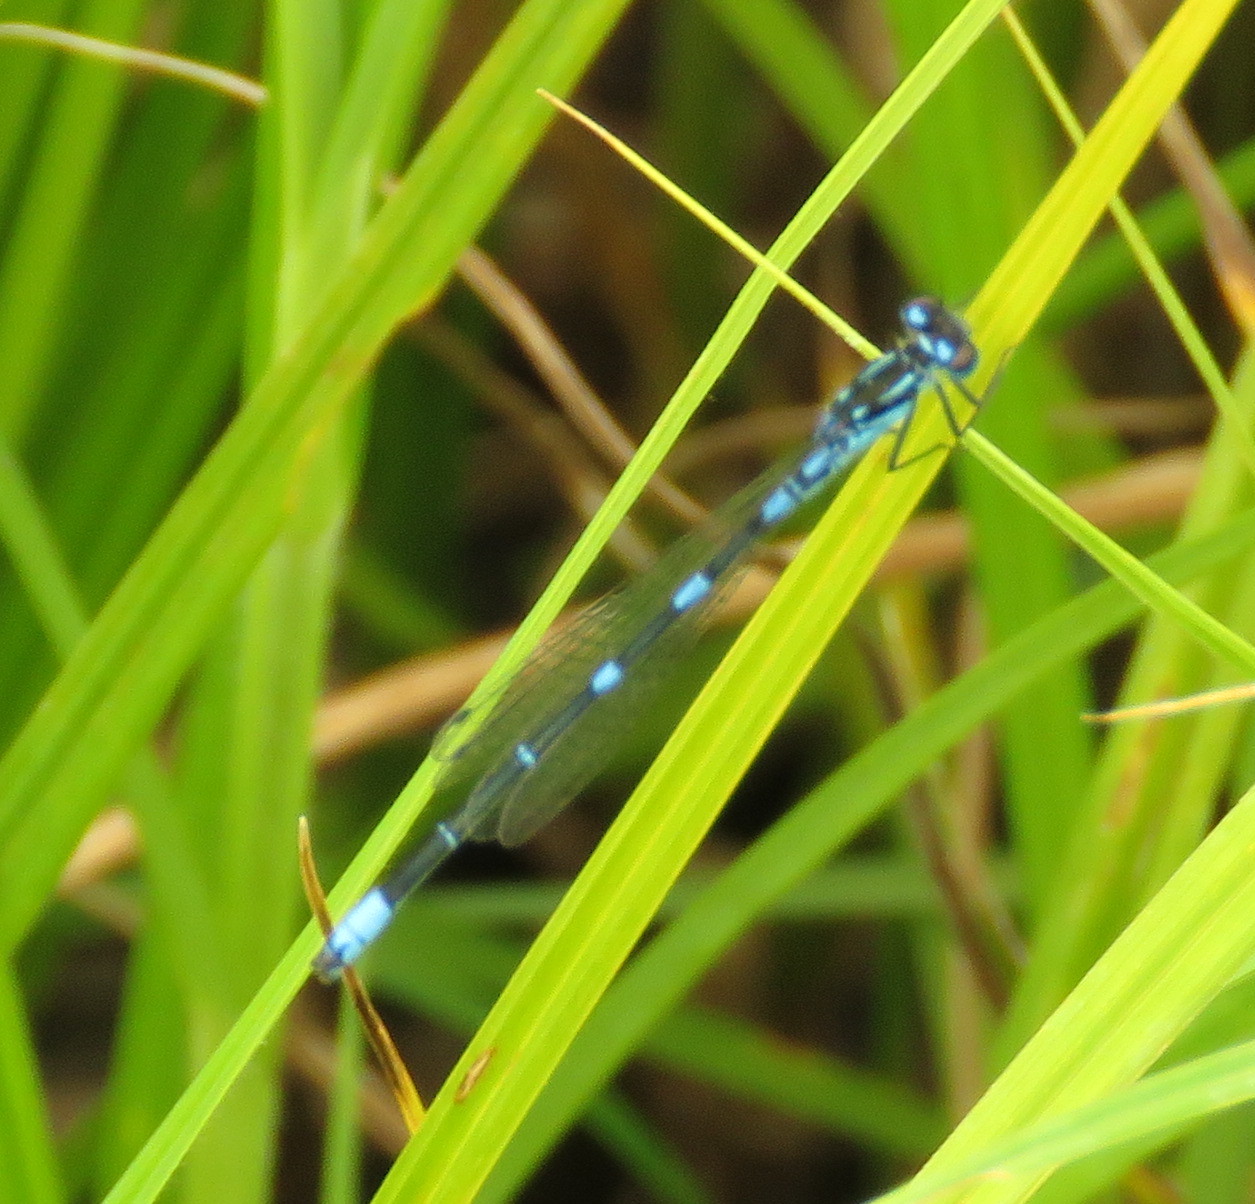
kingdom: Animalia
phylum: Arthropoda
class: Insecta
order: Odonata
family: Coenagrionidae
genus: Coenagrion
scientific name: Coenagrion pulchellum
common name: Variable bluet
